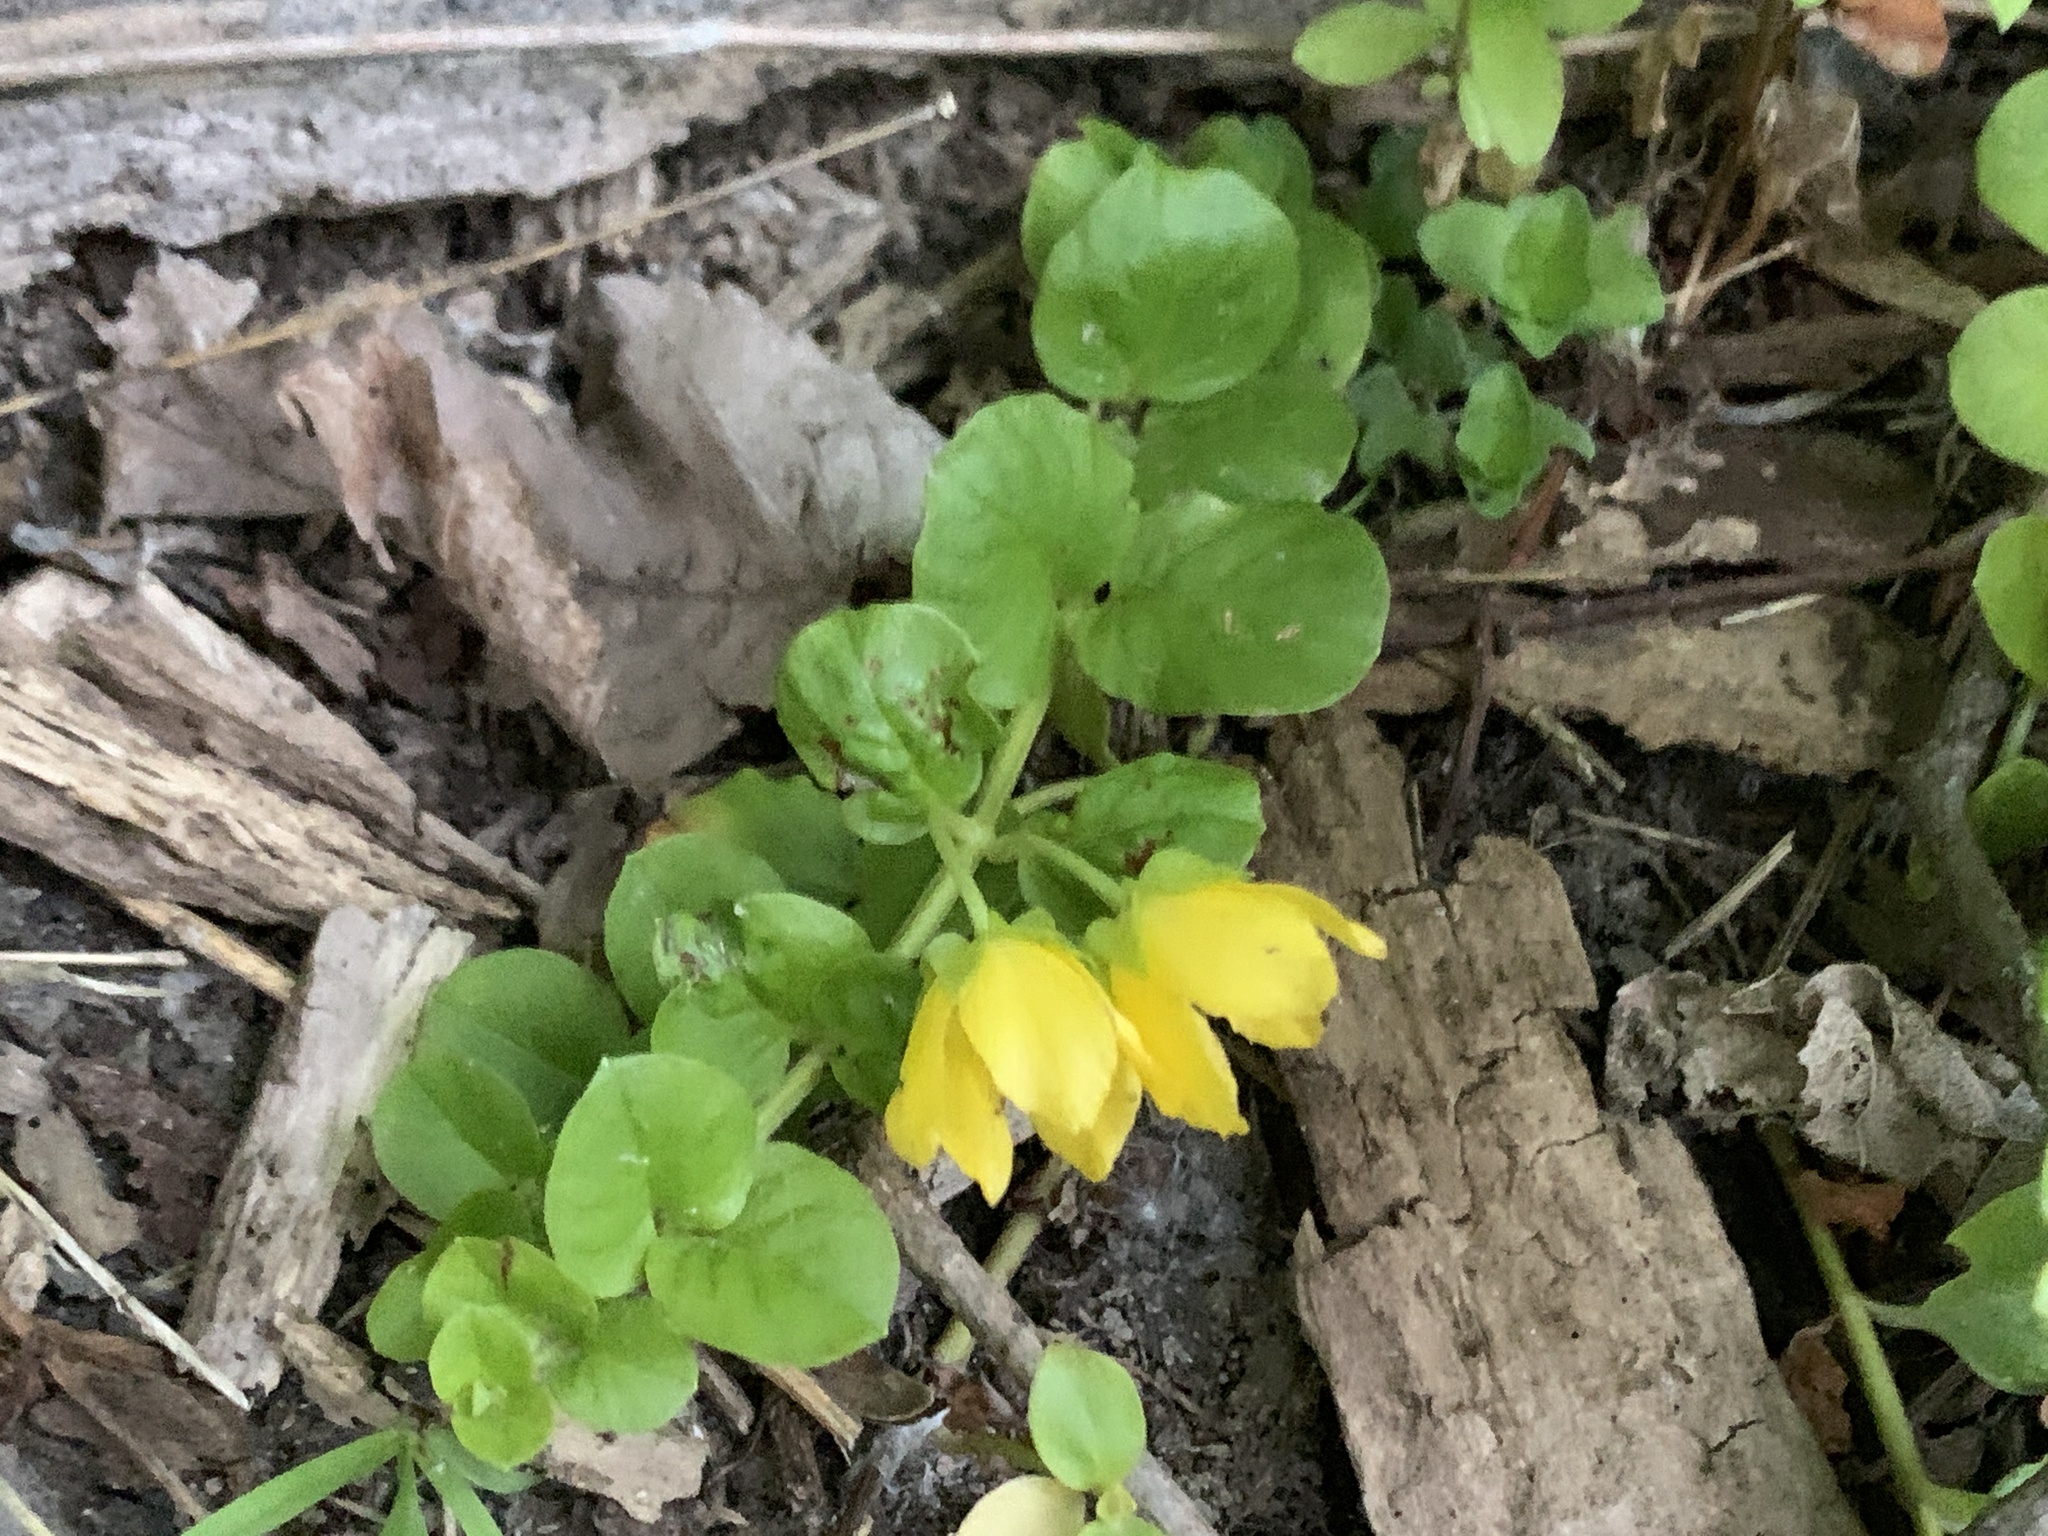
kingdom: Plantae
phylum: Tracheophyta
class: Magnoliopsida
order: Ericales
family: Primulaceae
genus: Lysimachia
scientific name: Lysimachia nummularia
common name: Moneywort
